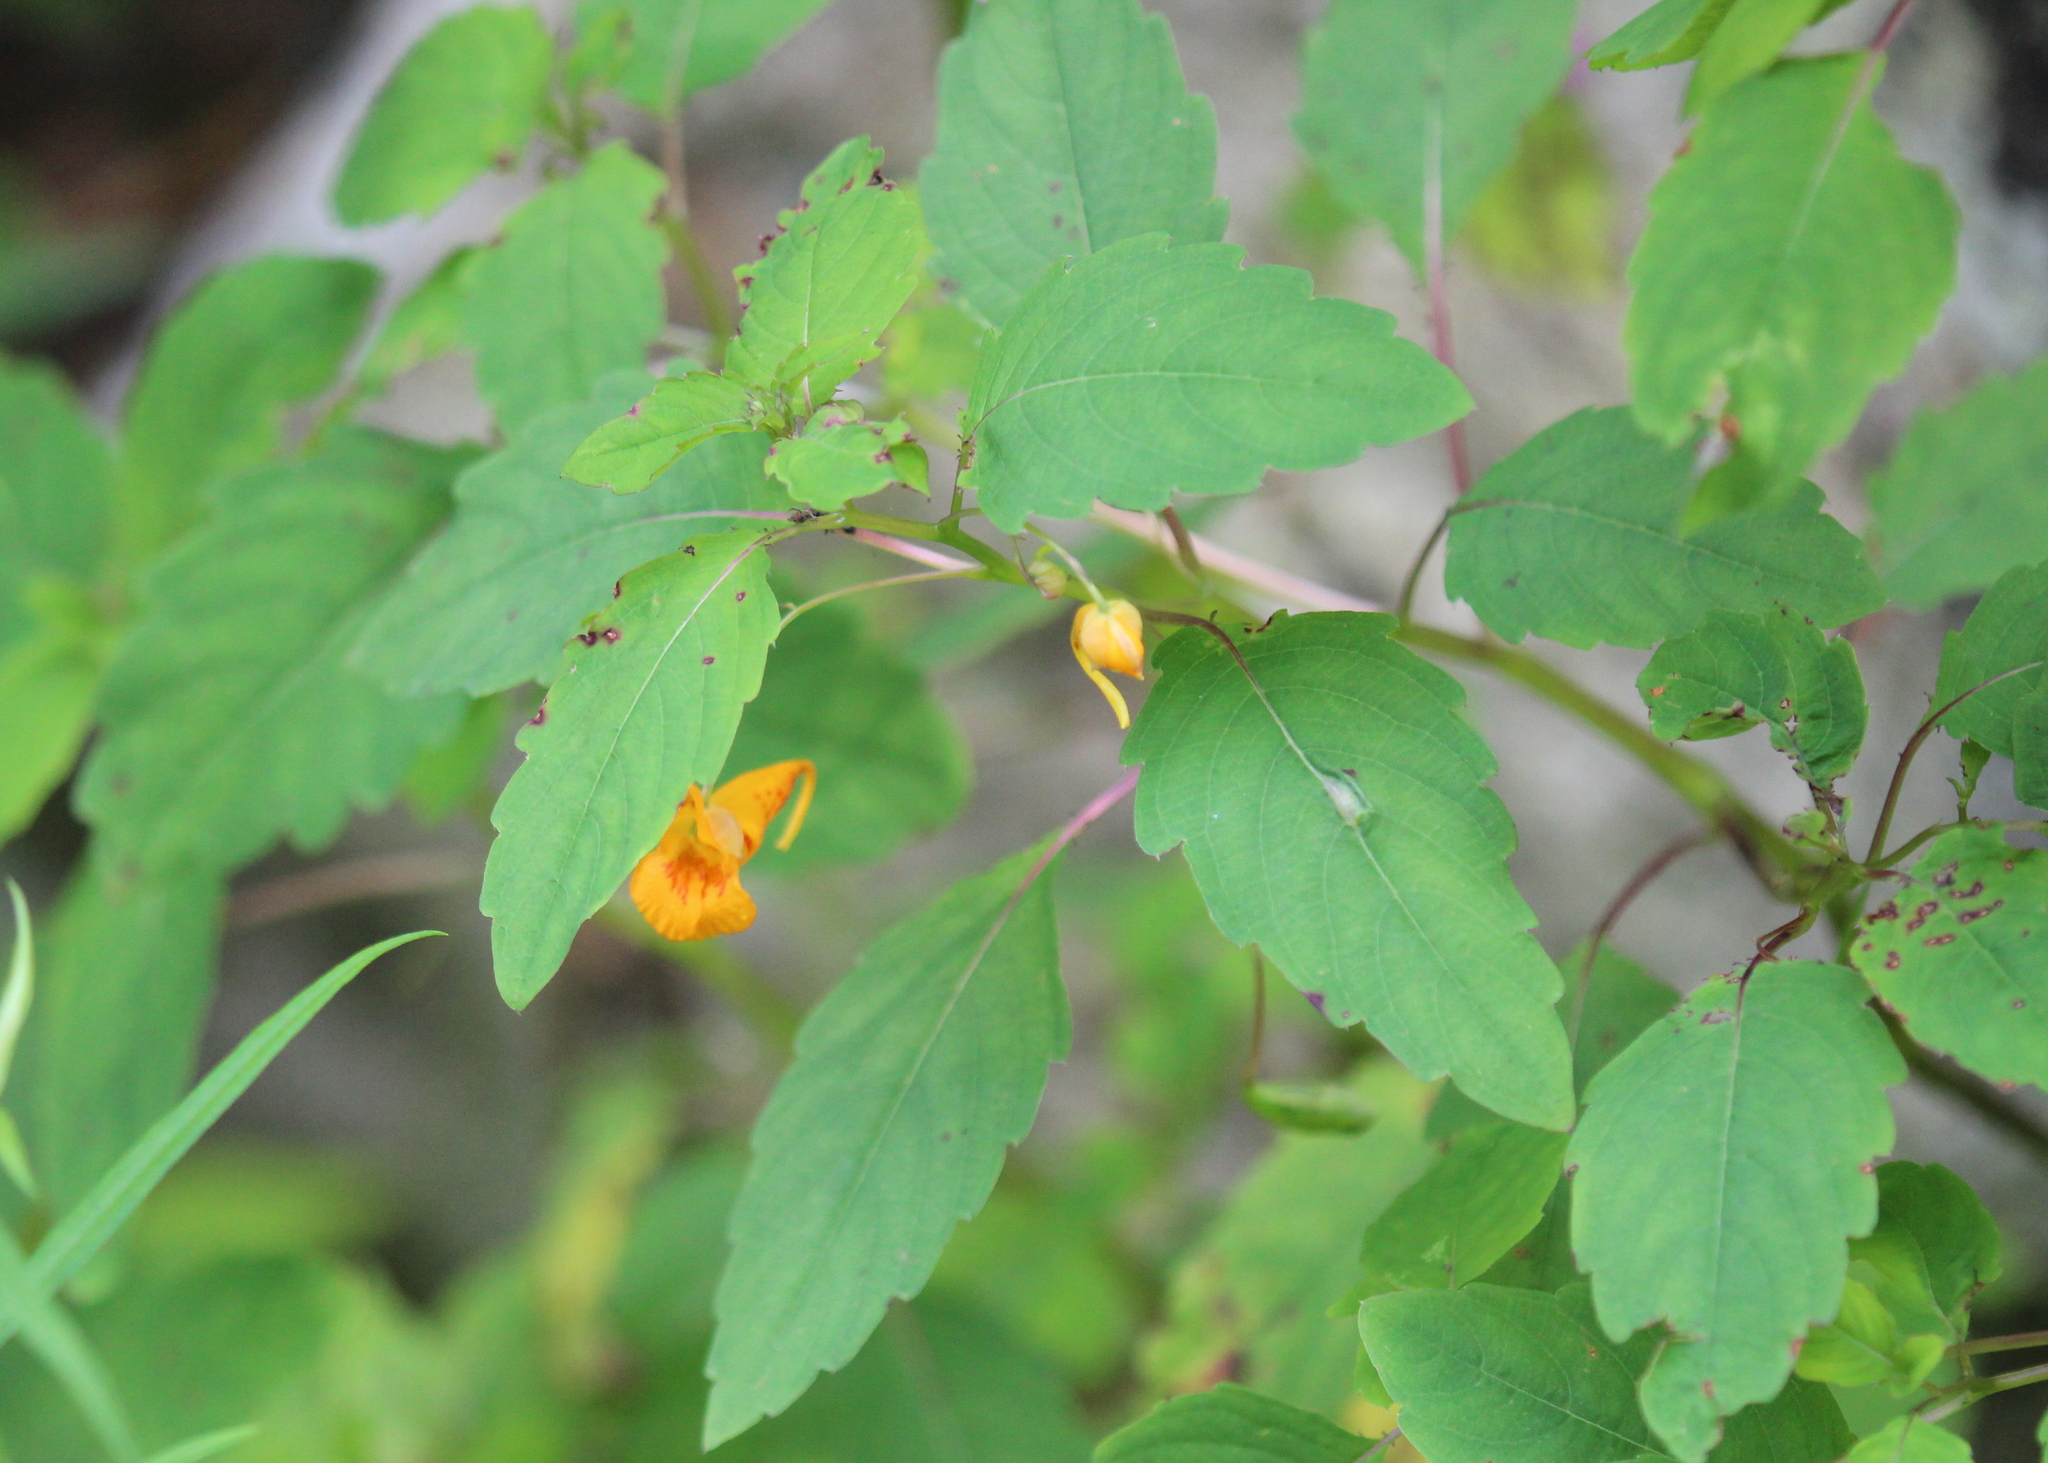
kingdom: Plantae
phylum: Tracheophyta
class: Magnoliopsida
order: Ericales
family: Balsaminaceae
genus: Impatiens
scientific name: Impatiens capensis
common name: Orange balsam
